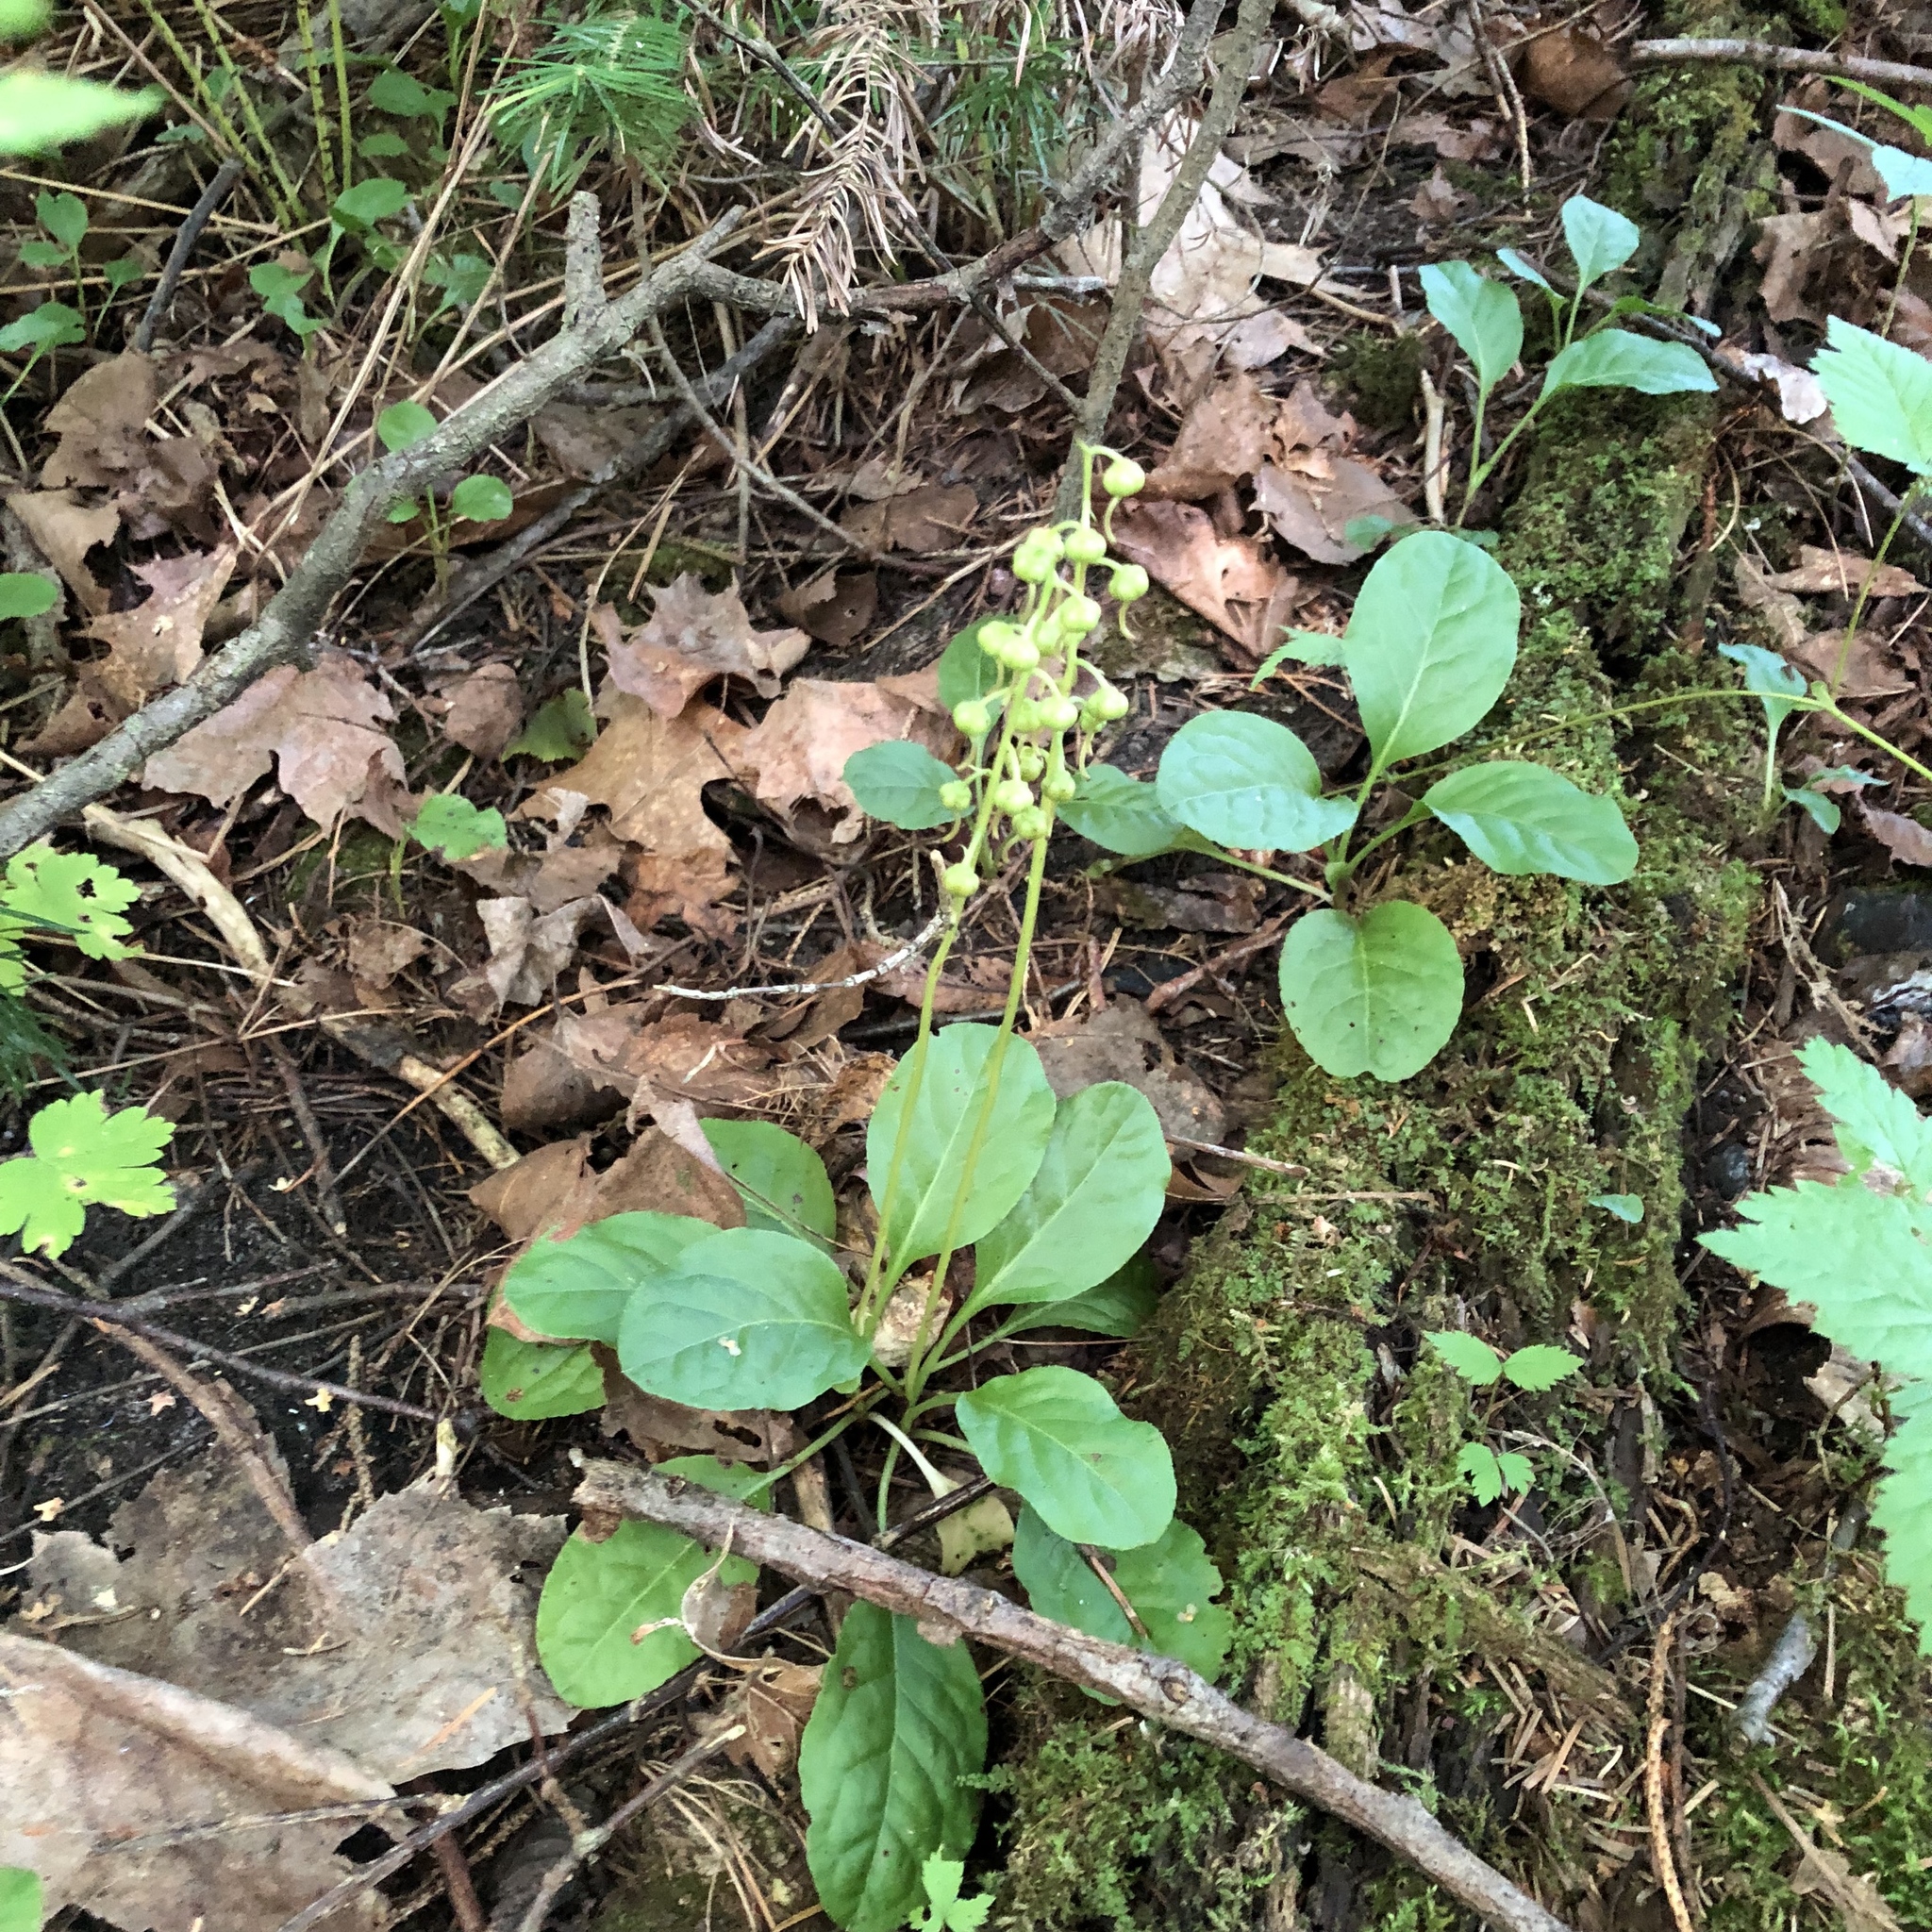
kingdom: Plantae
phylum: Tracheophyta
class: Magnoliopsida
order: Ericales
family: Ericaceae
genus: Pyrola
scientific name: Pyrola elliptica
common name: Shinleaf
